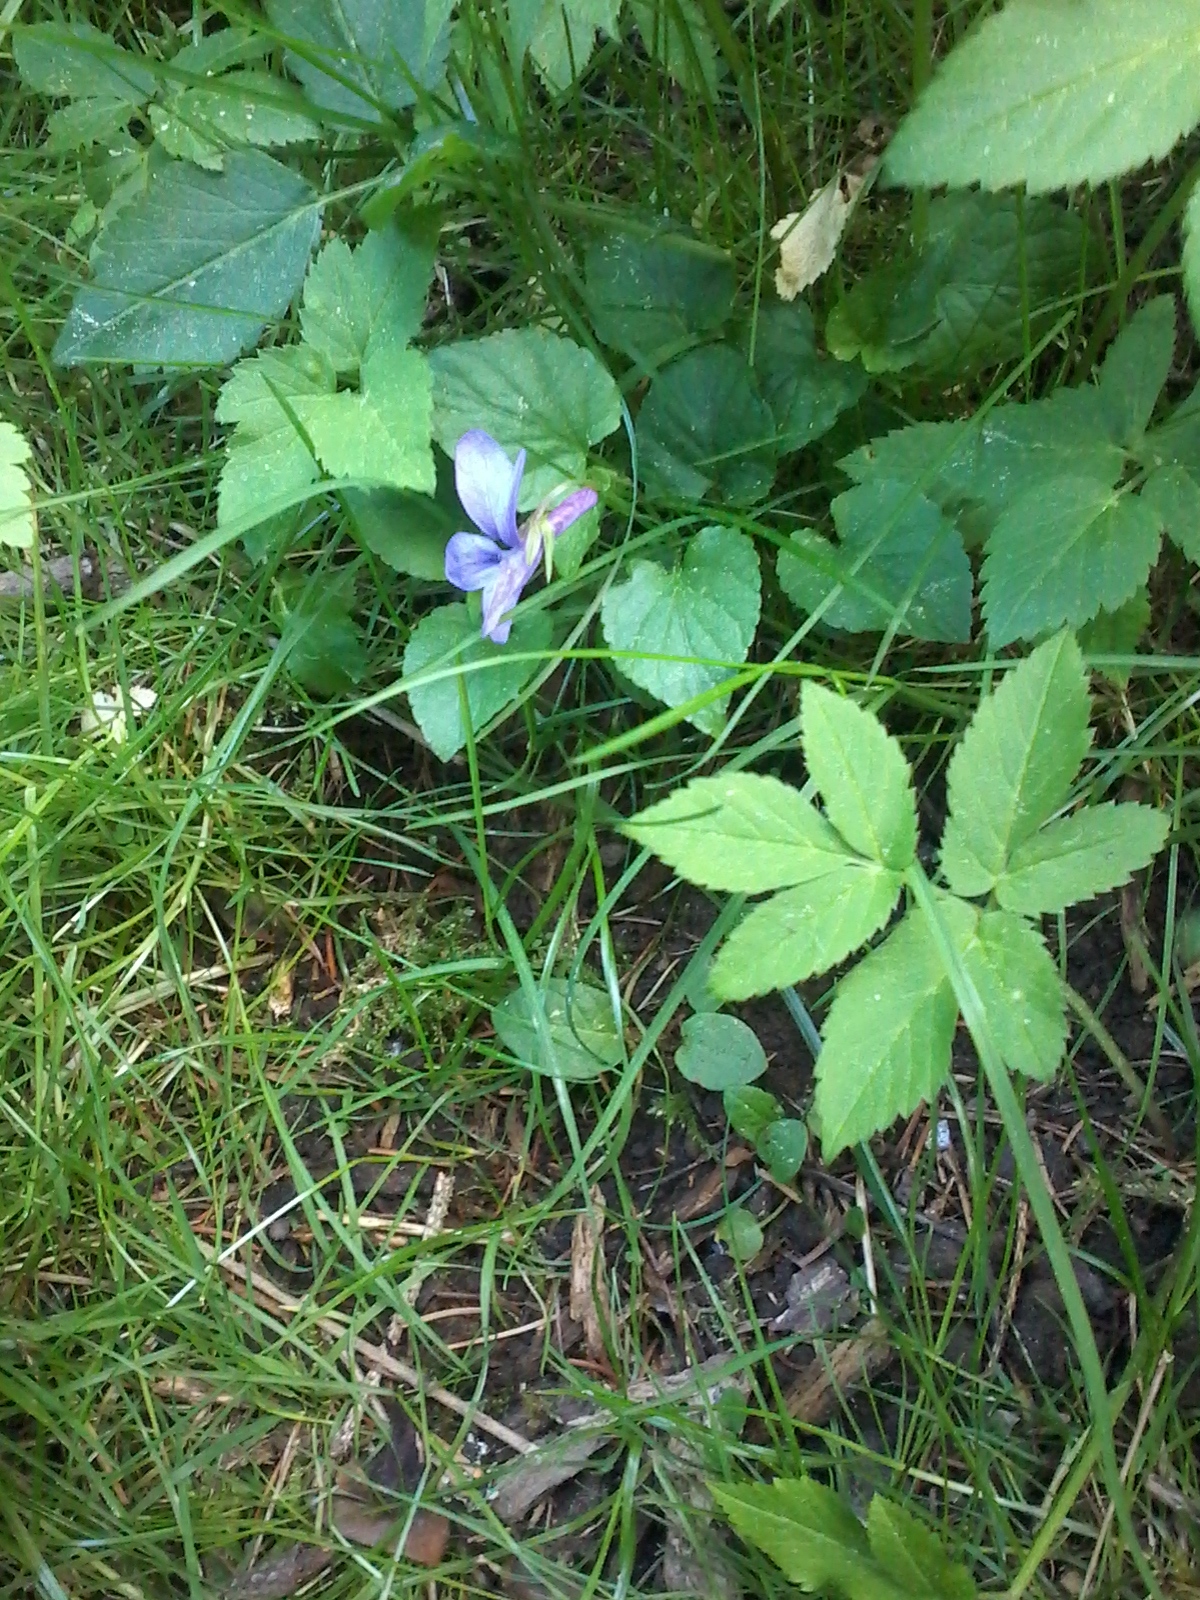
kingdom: Plantae
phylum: Tracheophyta
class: Magnoliopsida
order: Malpighiales
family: Violaceae
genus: Viola
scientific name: Viola reichenbachiana
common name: Early dog-violet
